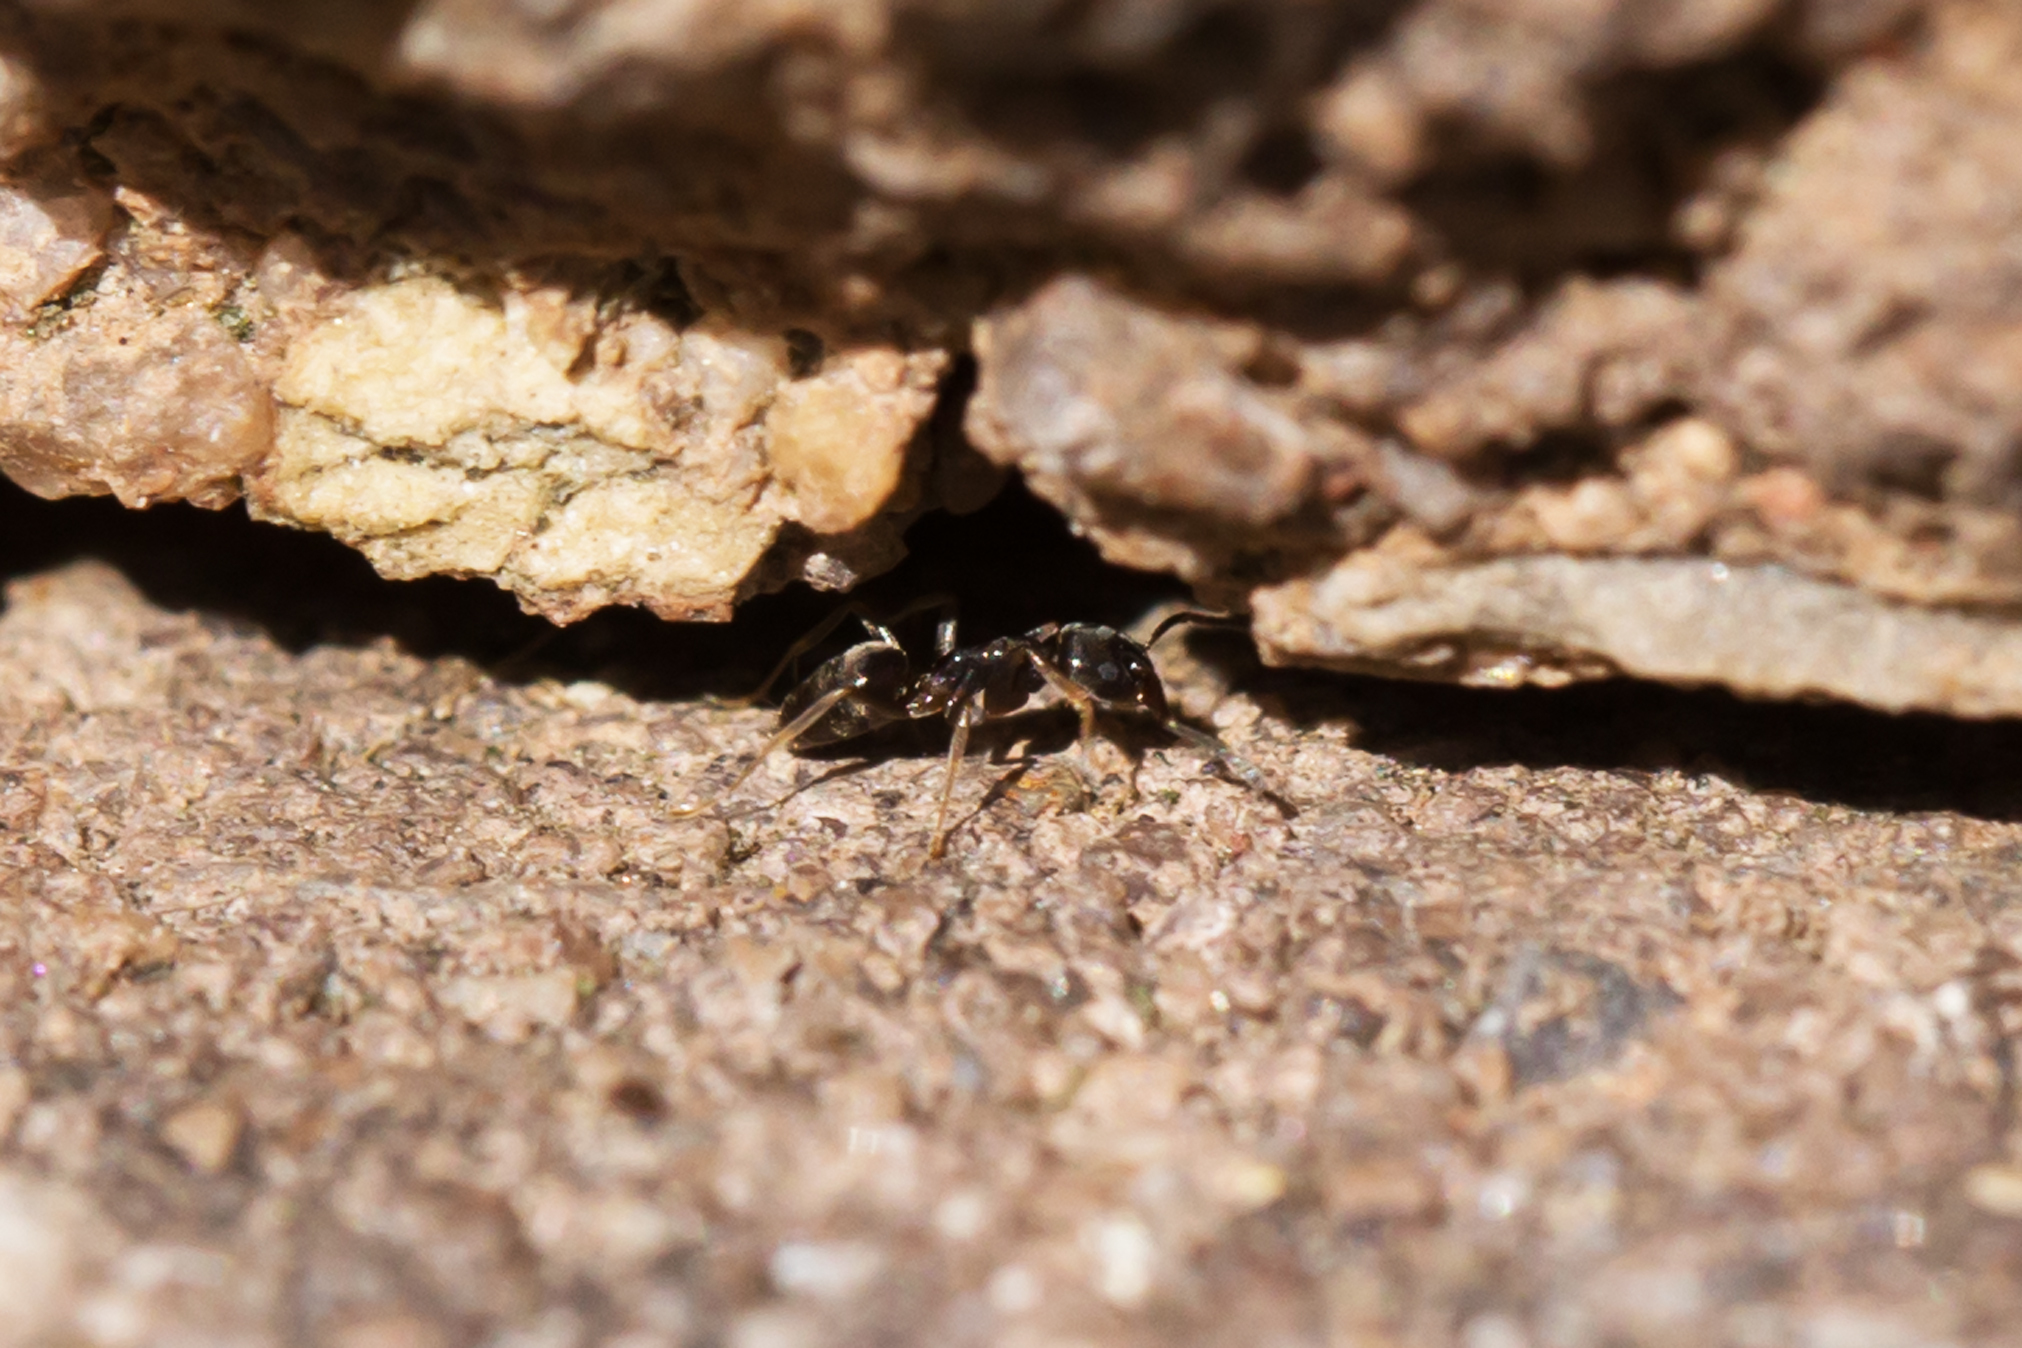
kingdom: Animalia
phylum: Arthropoda
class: Insecta
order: Hymenoptera
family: Formicidae
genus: Tapinoma
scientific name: Tapinoma sessile
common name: Odorous house ant
